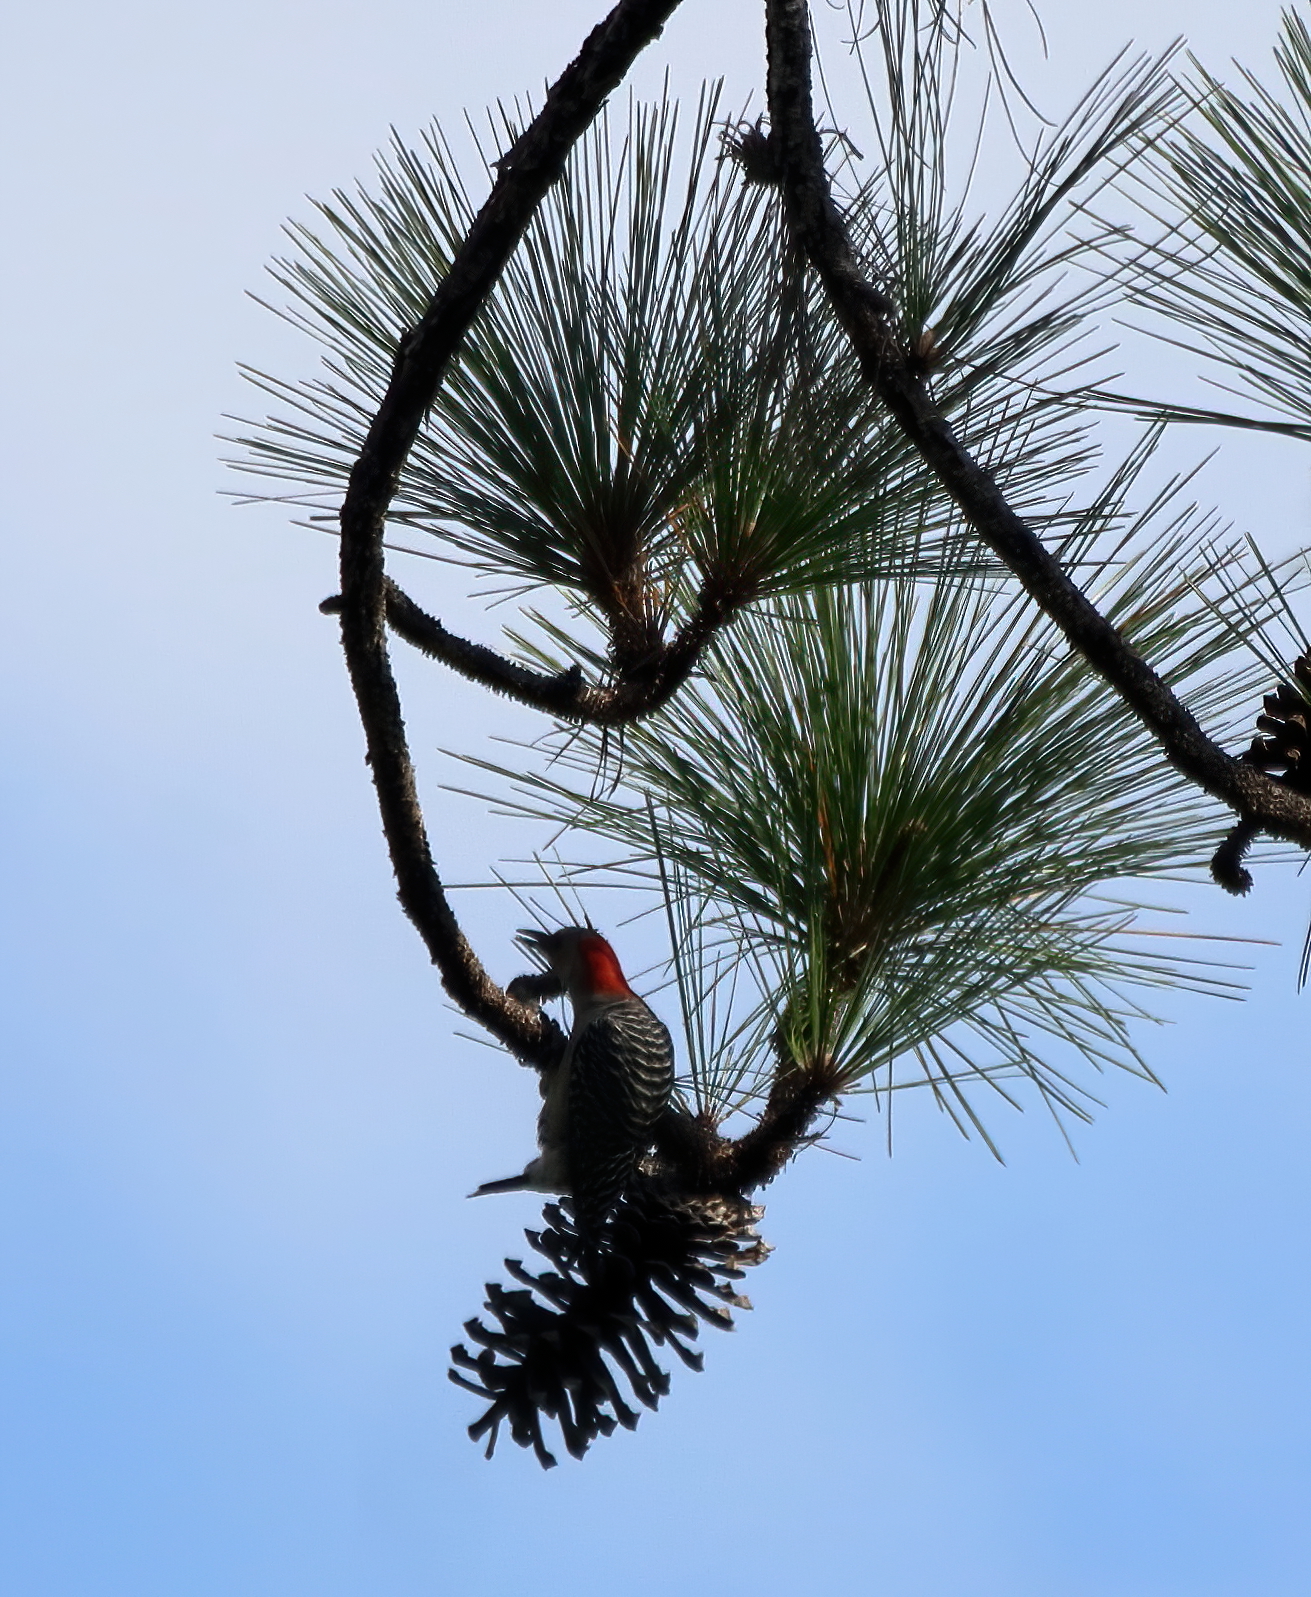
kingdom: Animalia
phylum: Chordata
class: Aves
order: Piciformes
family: Picidae
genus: Melanerpes
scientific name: Melanerpes carolinus
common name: Red-bellied woodpecker
